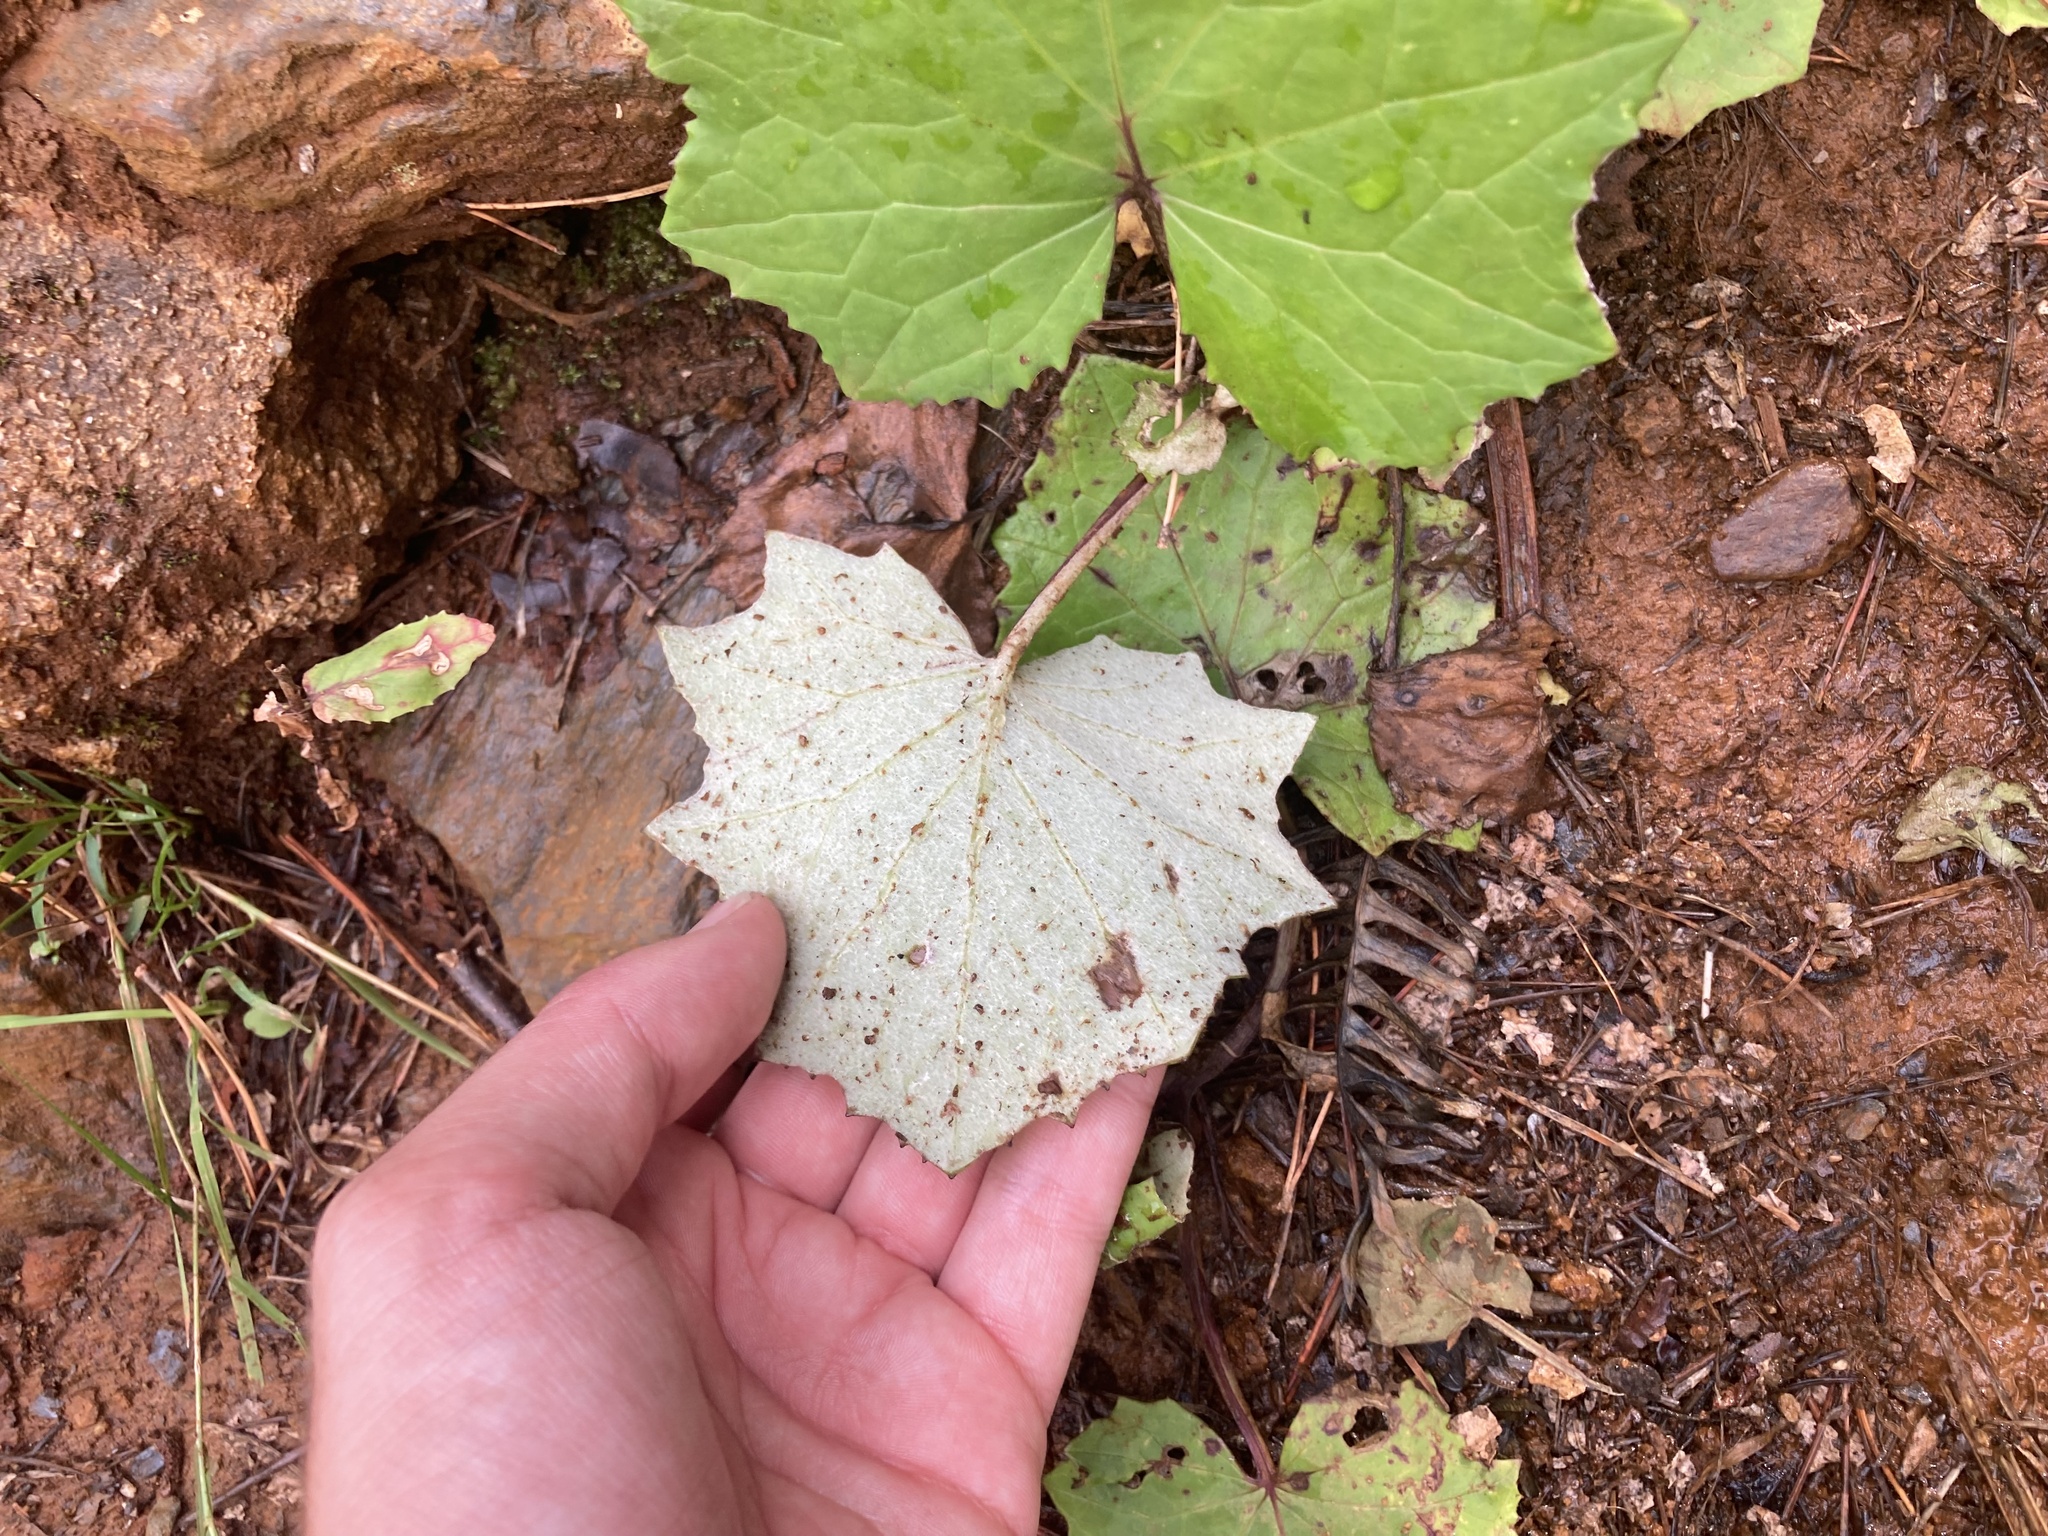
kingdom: Plantae
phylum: Tracheophyta
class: Magnoliopsida
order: Asterales
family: Asteraceae
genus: Tussilago
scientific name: Tussilago farfara
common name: Coltsfoot
